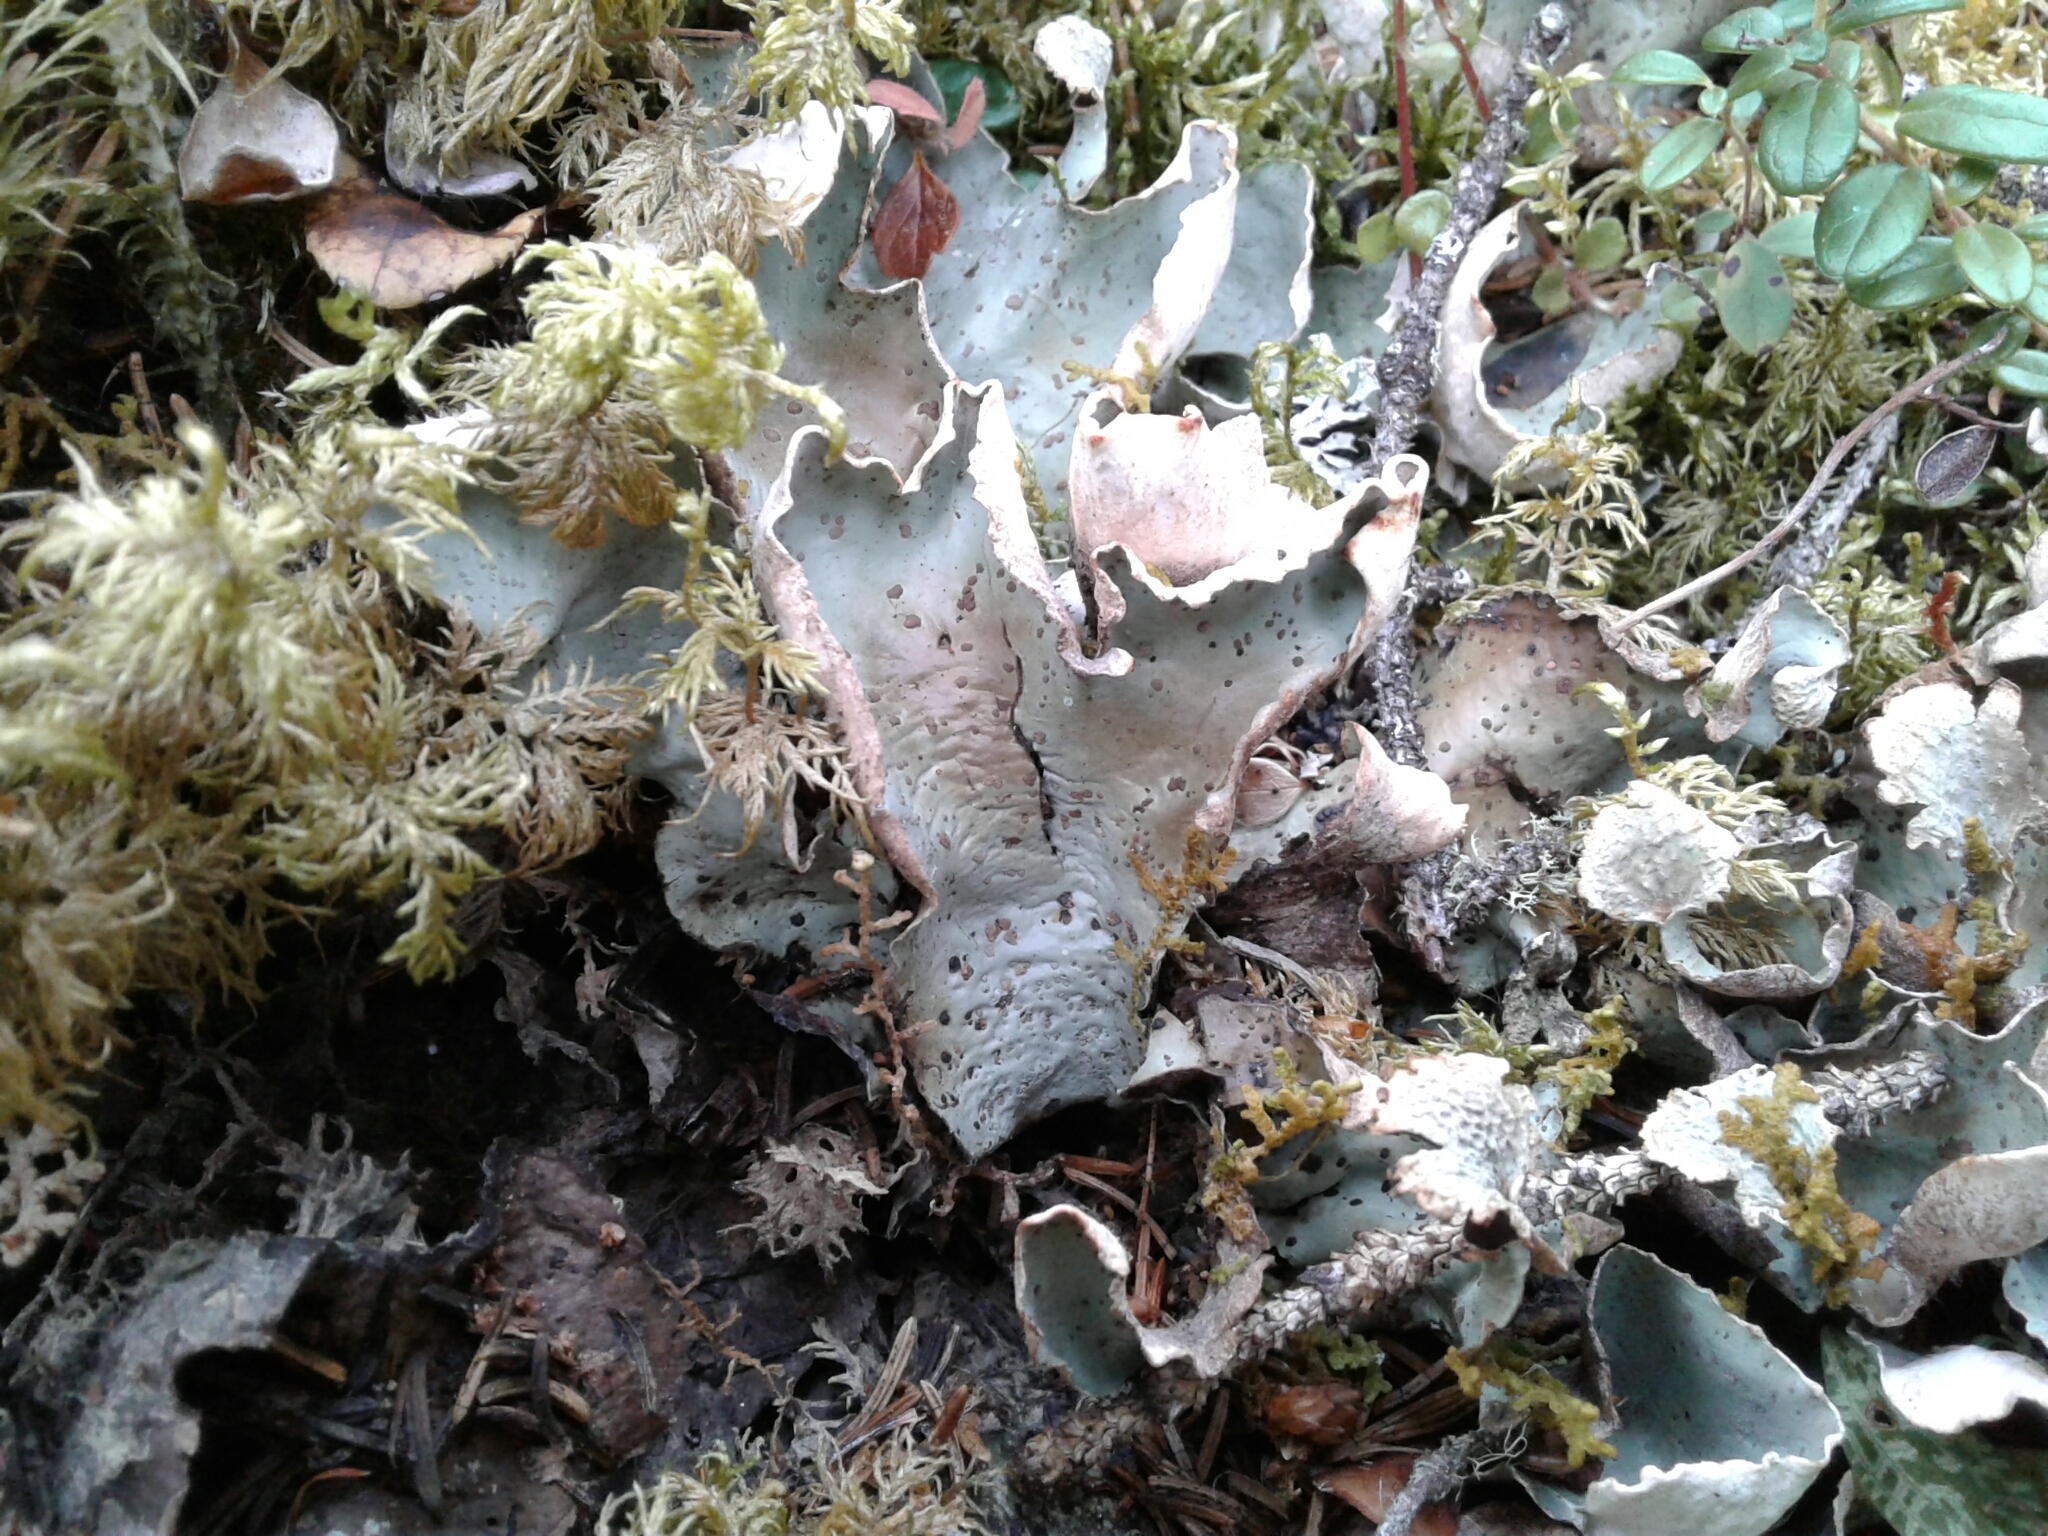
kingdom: Fungi
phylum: Ascomycota
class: Lecanoromycetes
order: Peltigerales
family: Peltigeraceae
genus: Peltigera
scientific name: Peltigera aphthosa
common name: Common freckle pelt lichen
